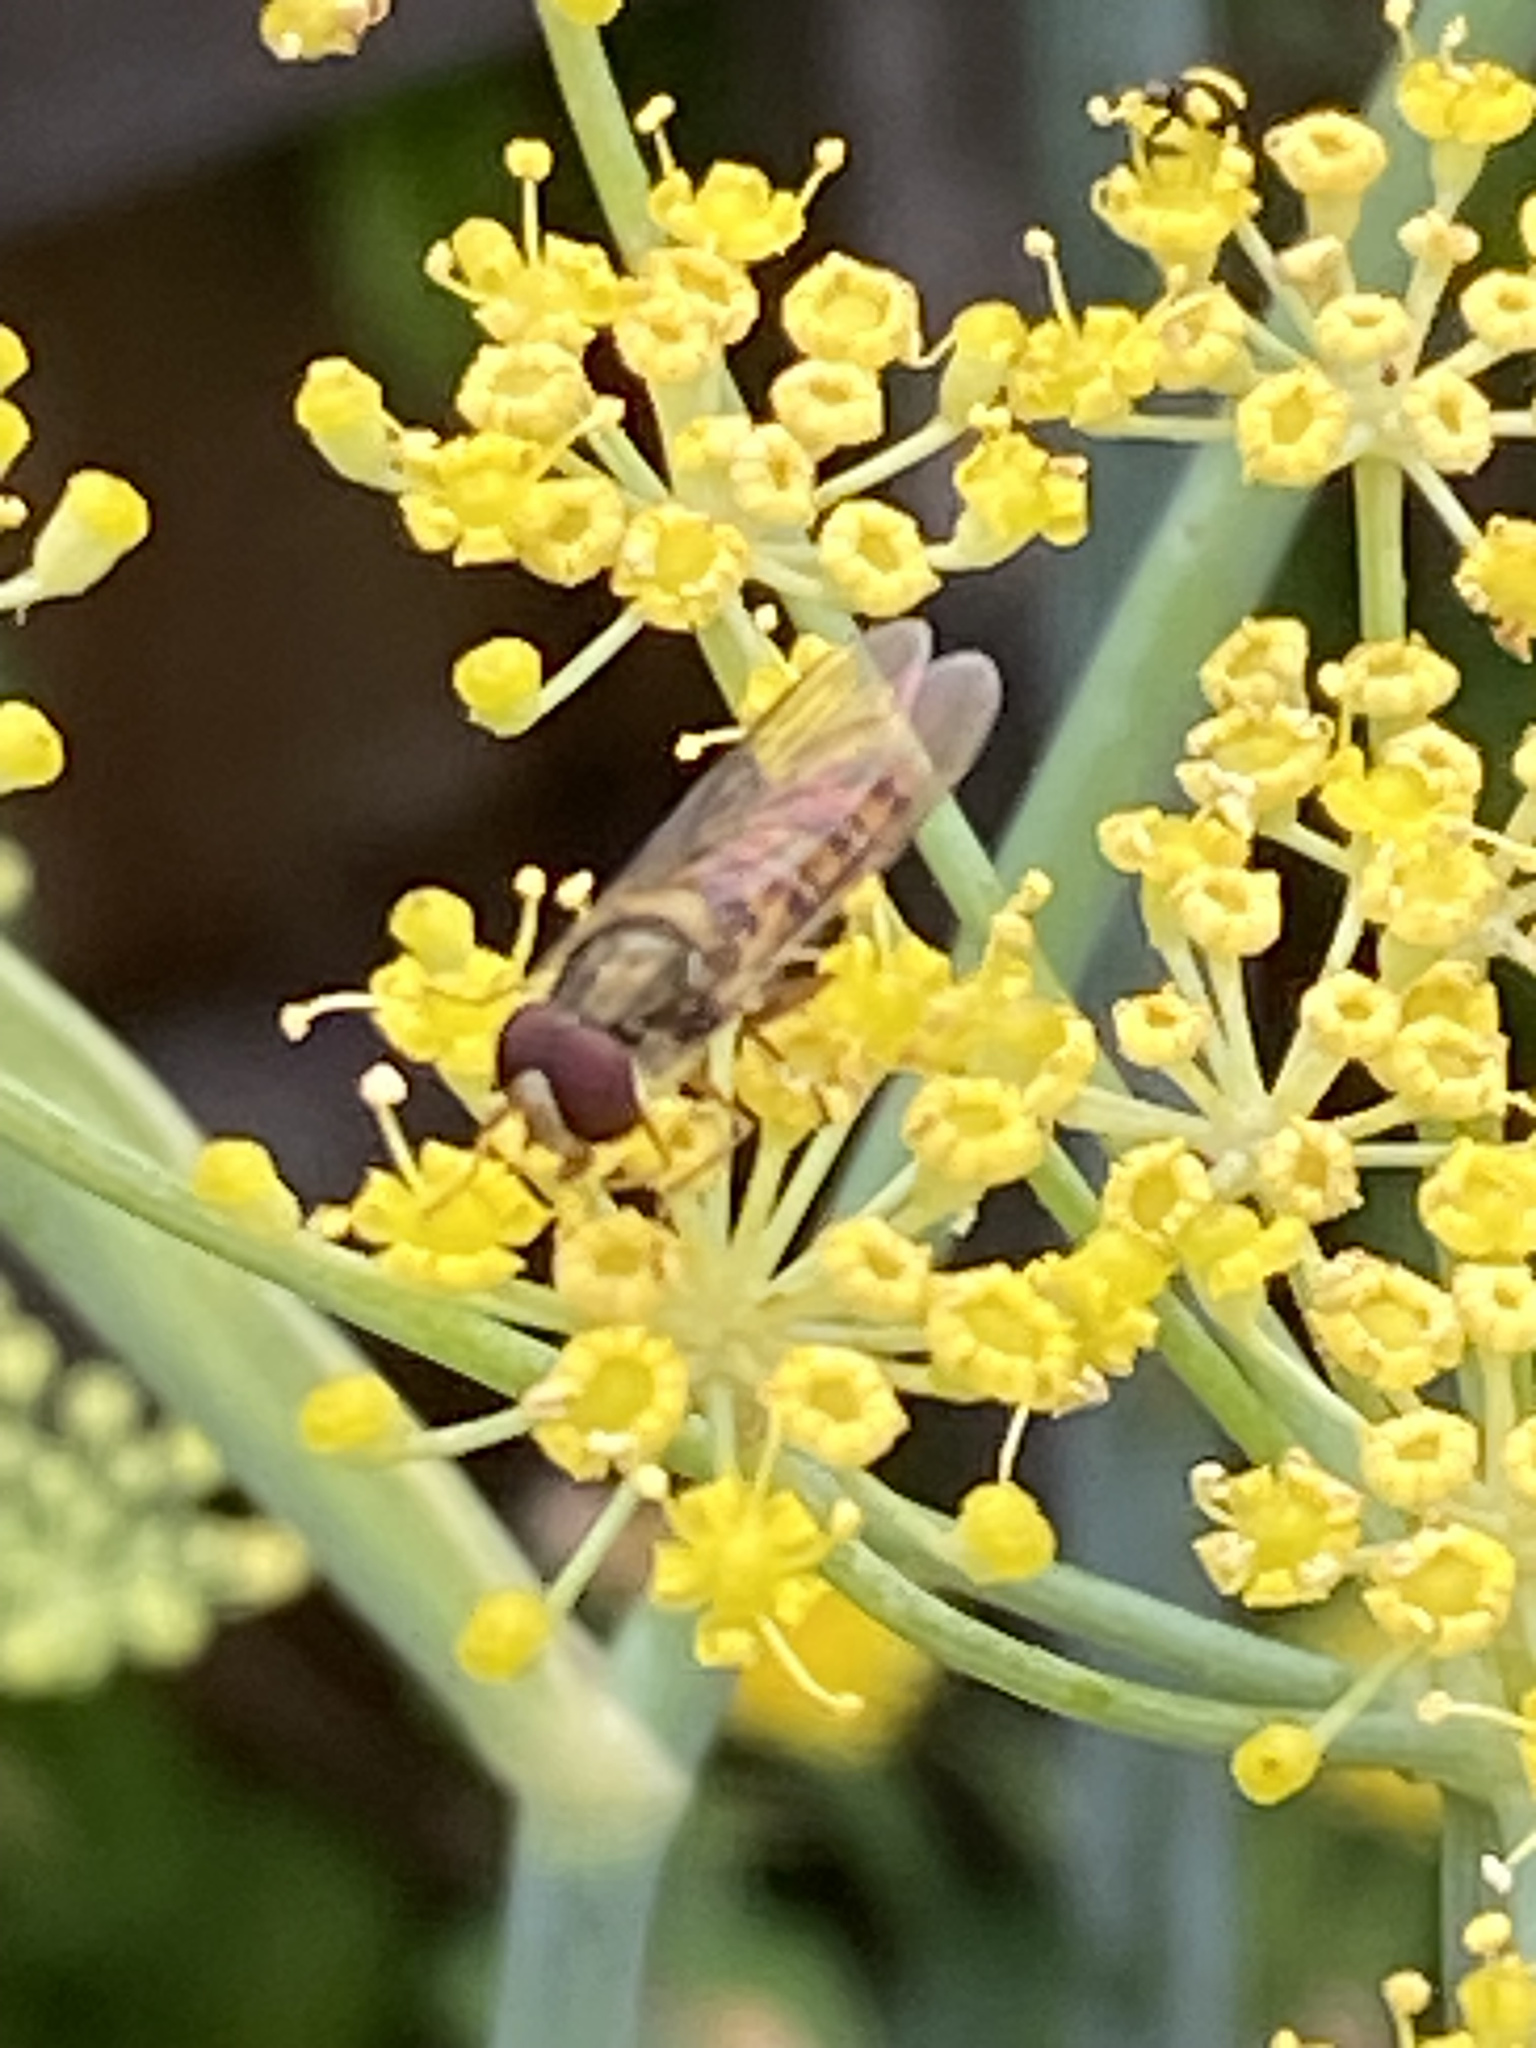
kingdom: Animalia
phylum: Arthropoda
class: Insecta
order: Diptera
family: Syrphidae
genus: Episyrphus
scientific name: Episyrphus balteatus
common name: Marmalade hoverfly
